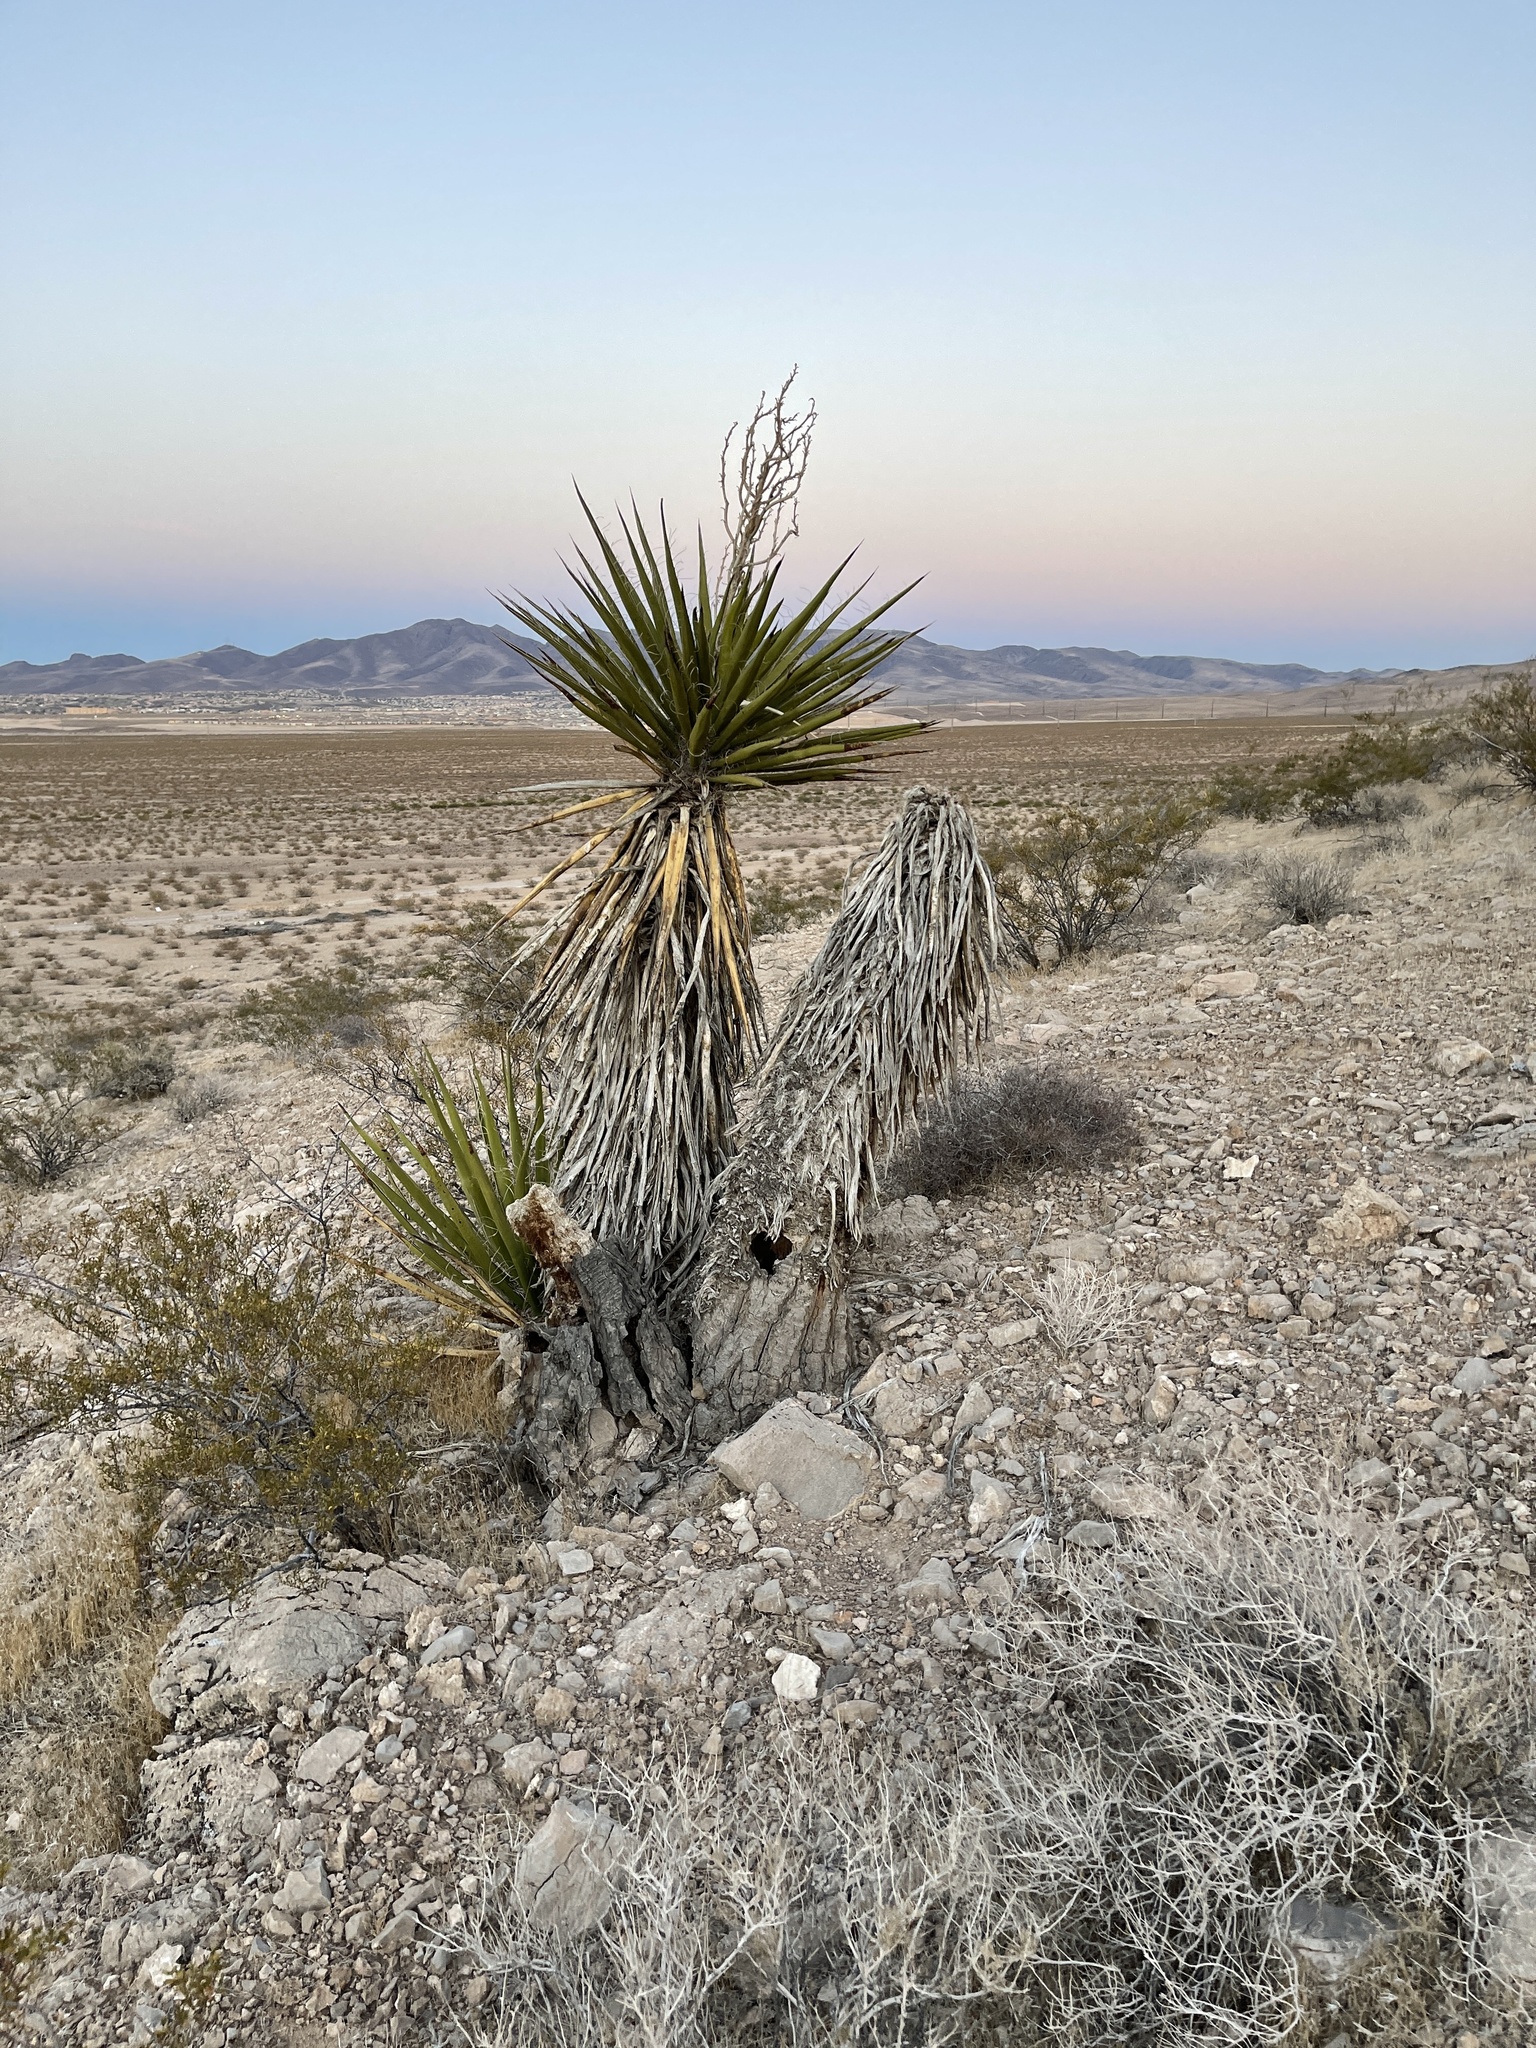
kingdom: Plantae
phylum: Tracheophyta
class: Liliopsida
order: Asparagales
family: Asparagaceae
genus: Yucca
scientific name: Yucca schidigera
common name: Mojave yucca
